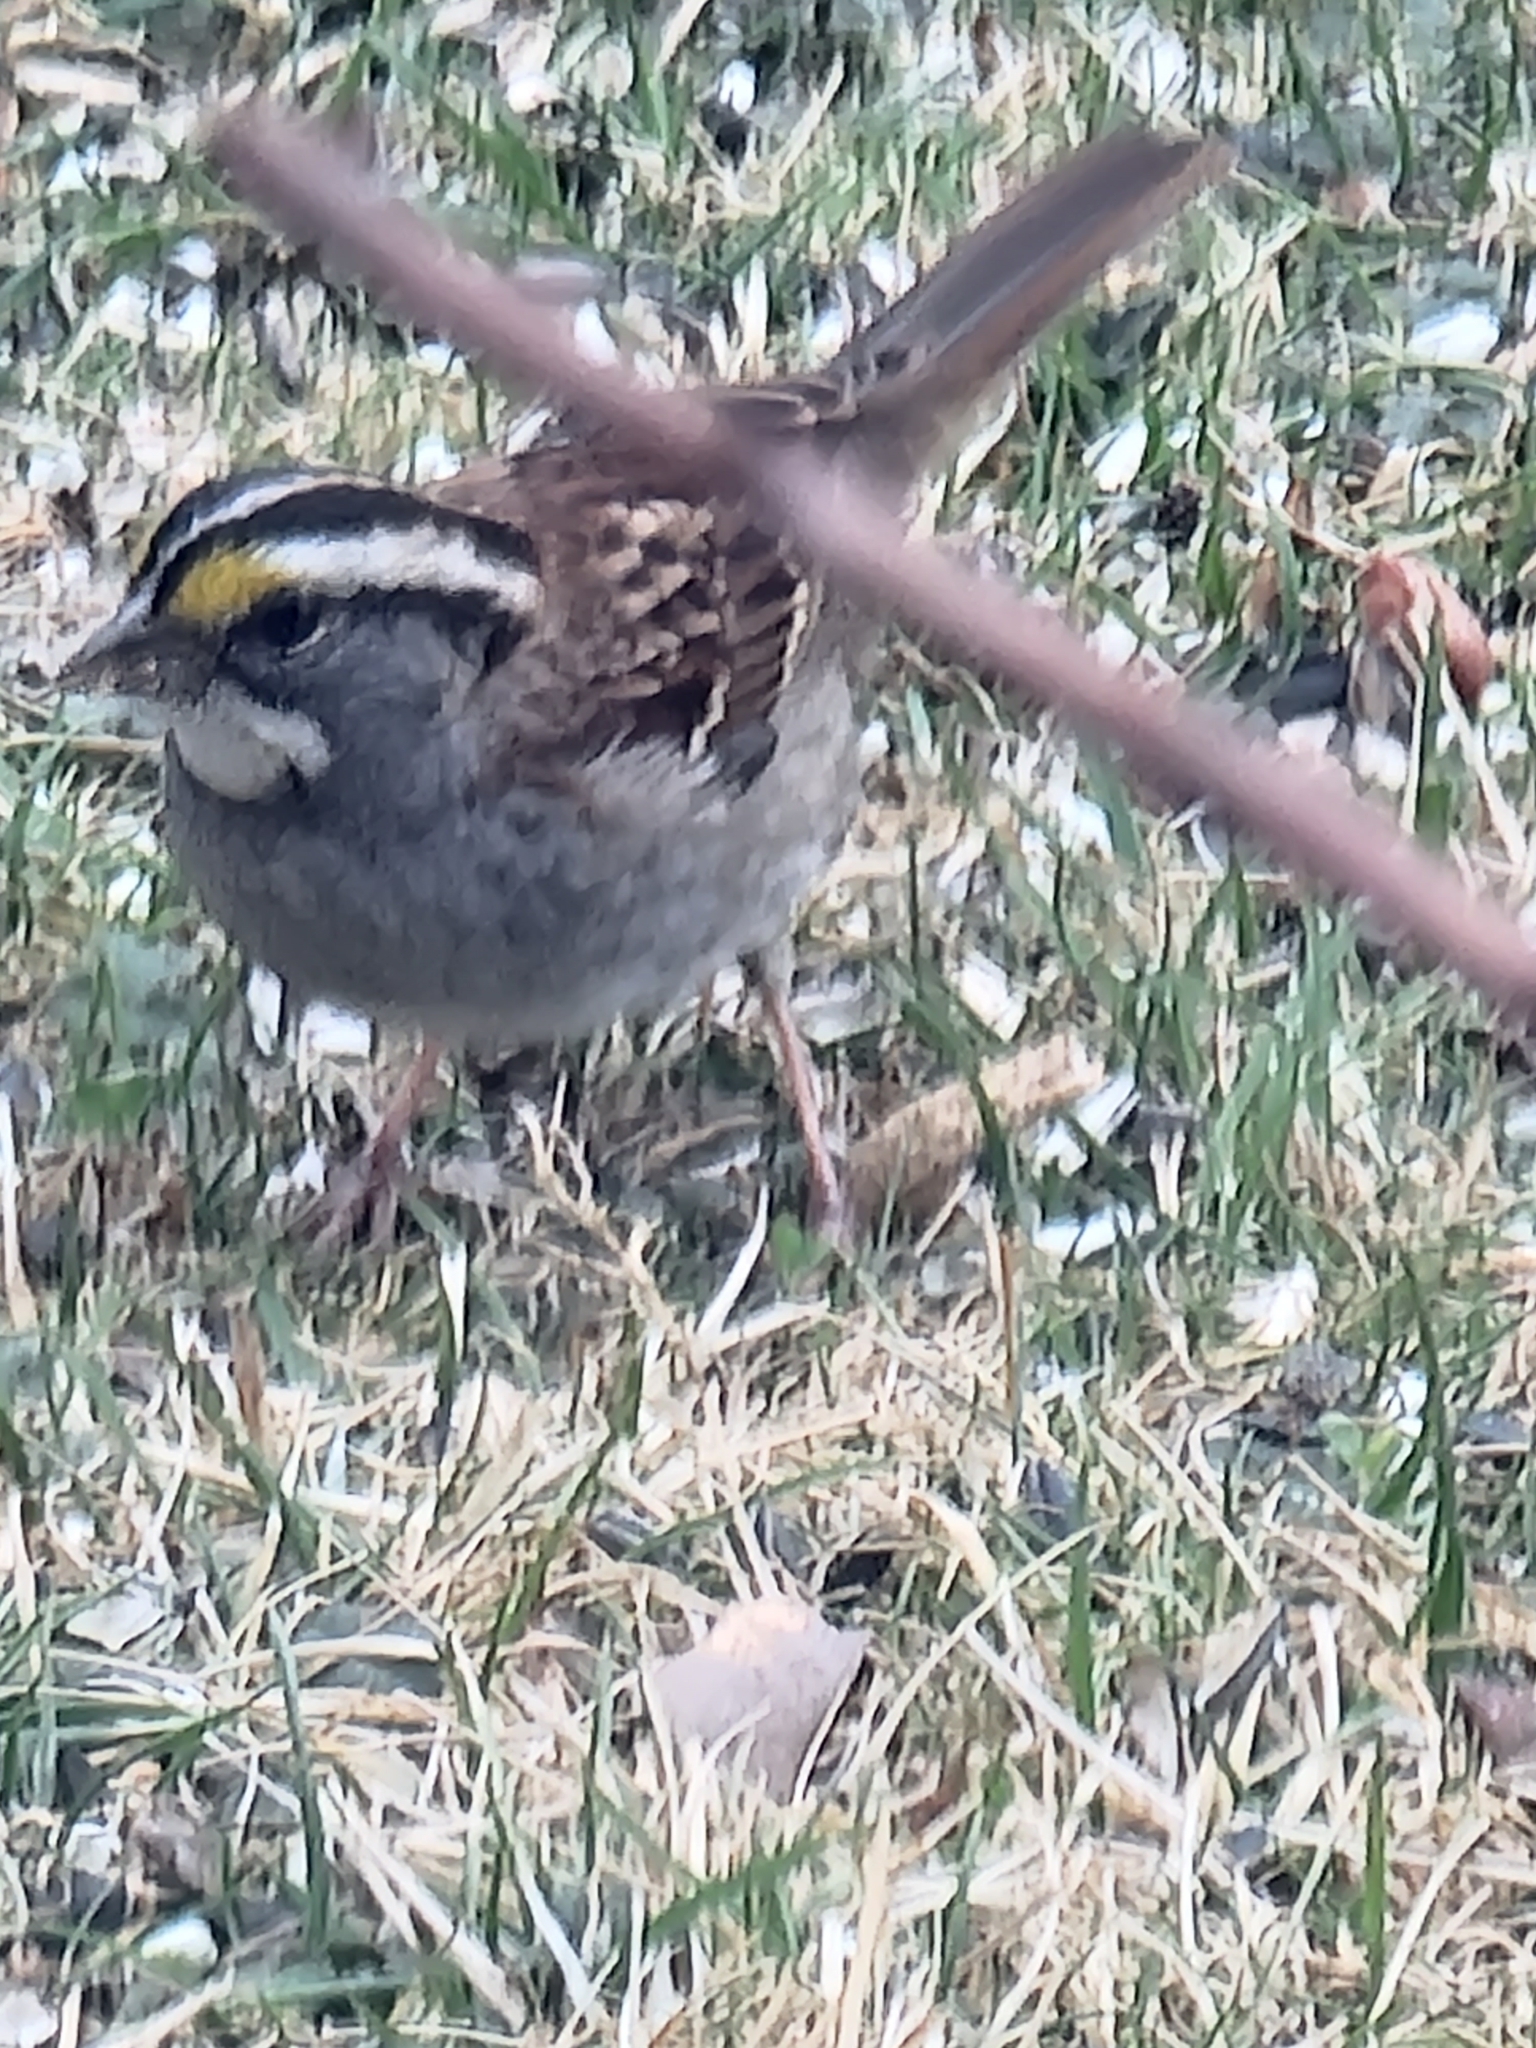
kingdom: Animalia
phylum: Chordata
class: Aves
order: Passeriformes
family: Passerellidae
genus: Zonotrichia
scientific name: Zonotrichia albicollis
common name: White-throated sparrow
